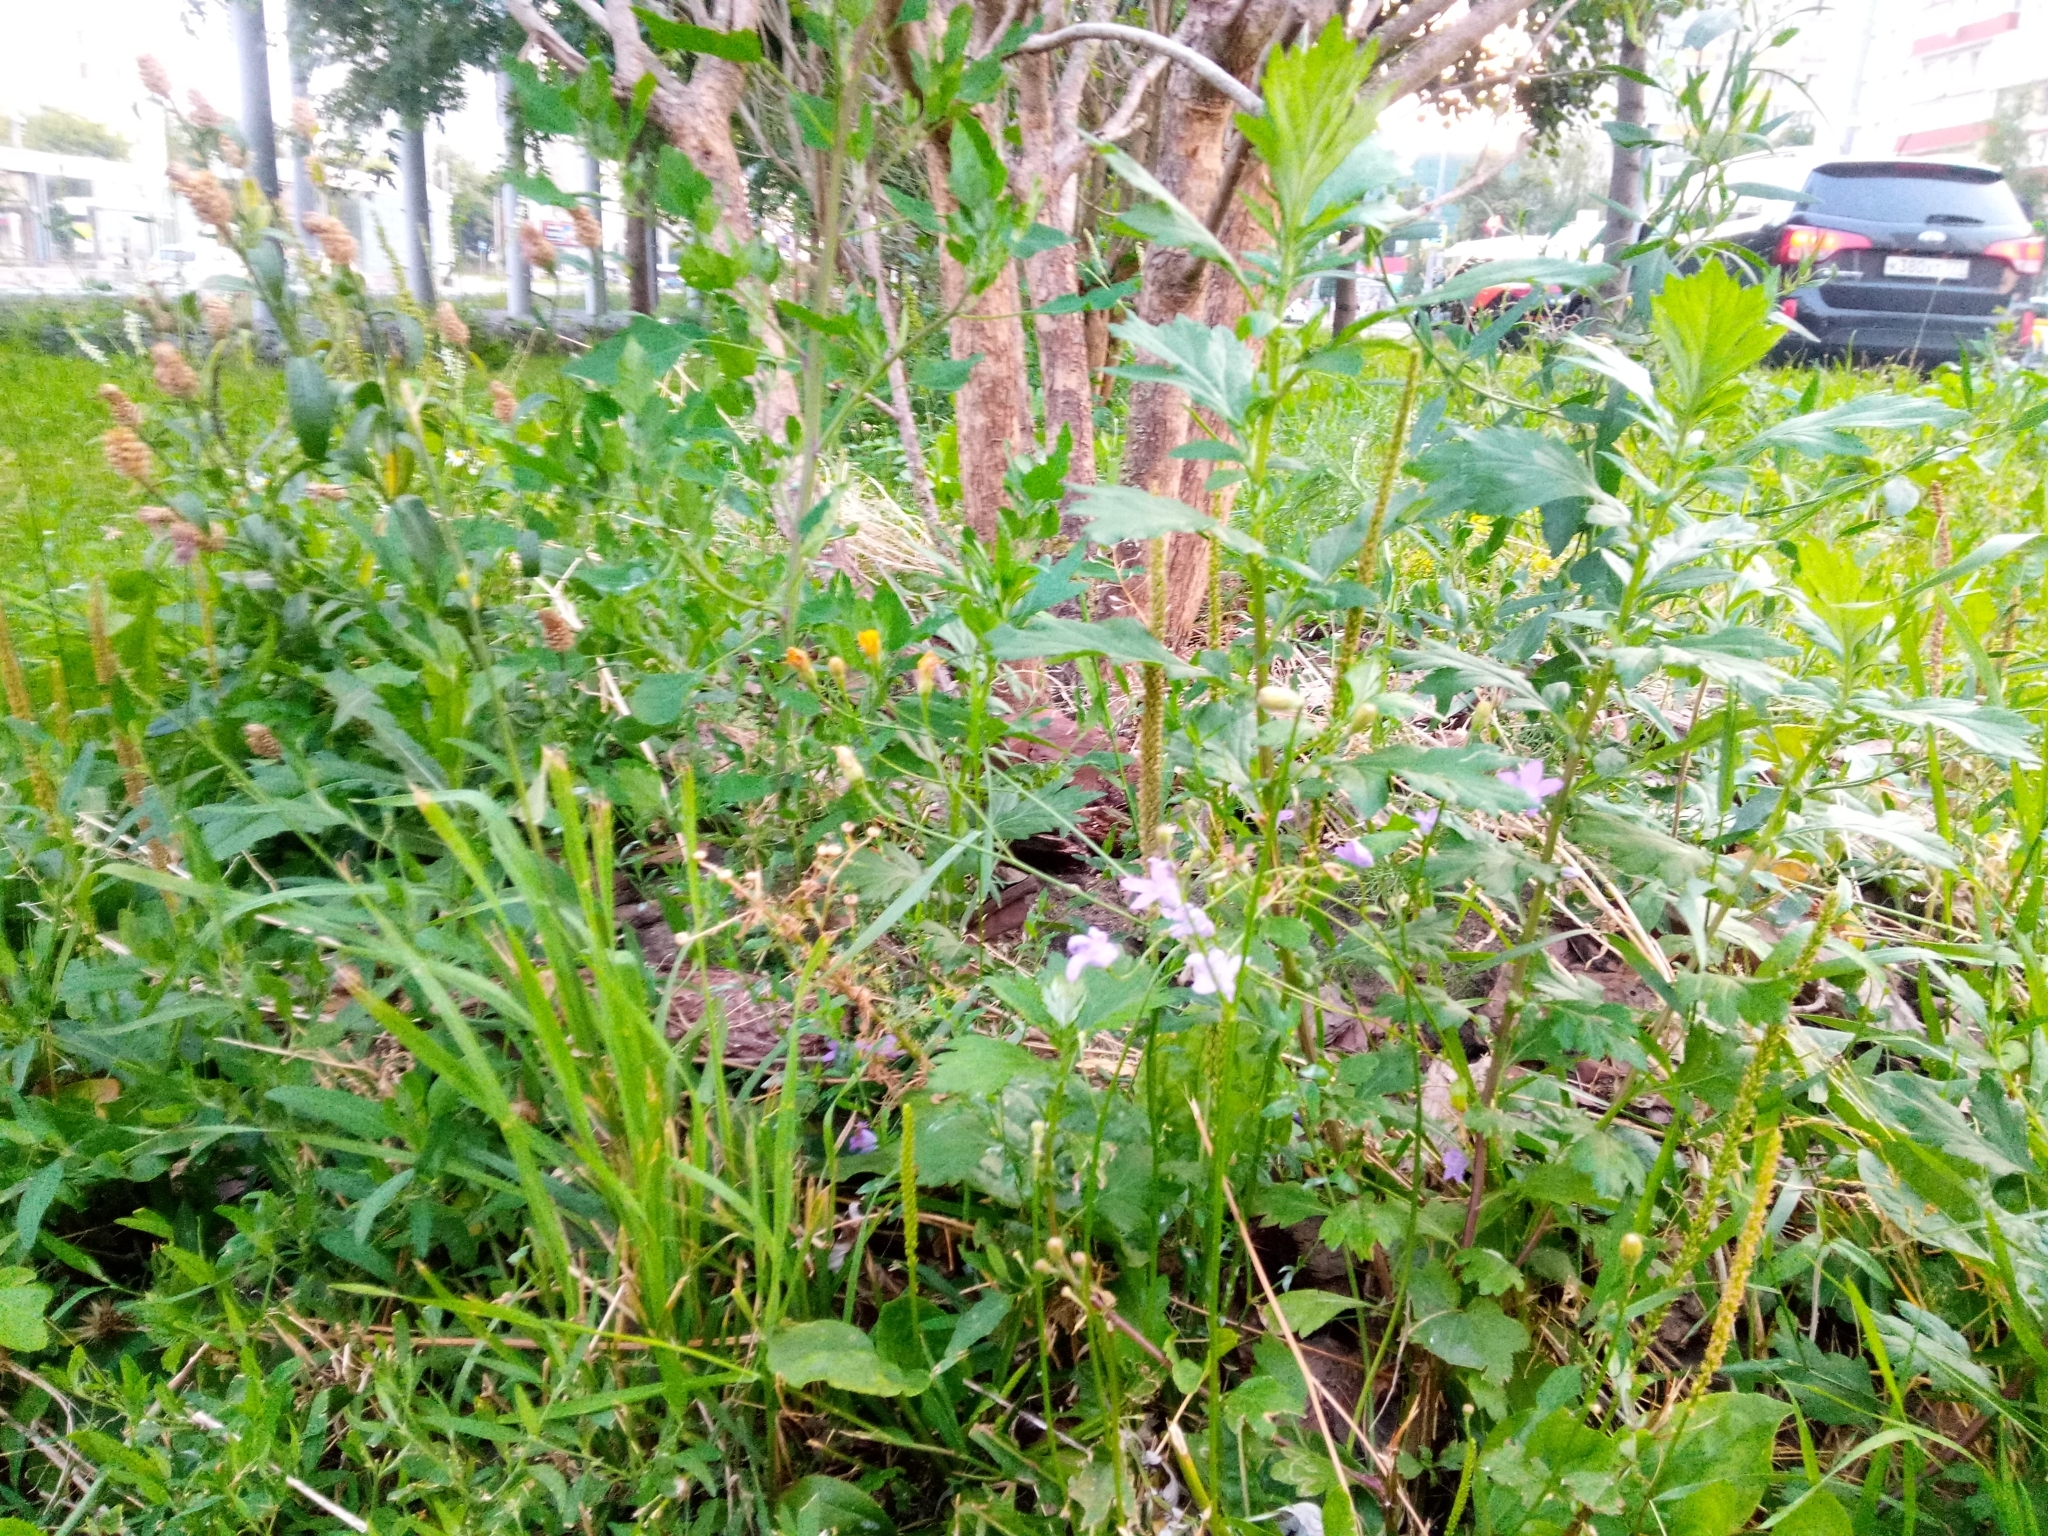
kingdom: Plantae
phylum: Tracheophyta
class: Magnoliopsida
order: Asterales
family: Campanulaceae
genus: Campanula
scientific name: Campanula patula
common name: Spreading bellflower
